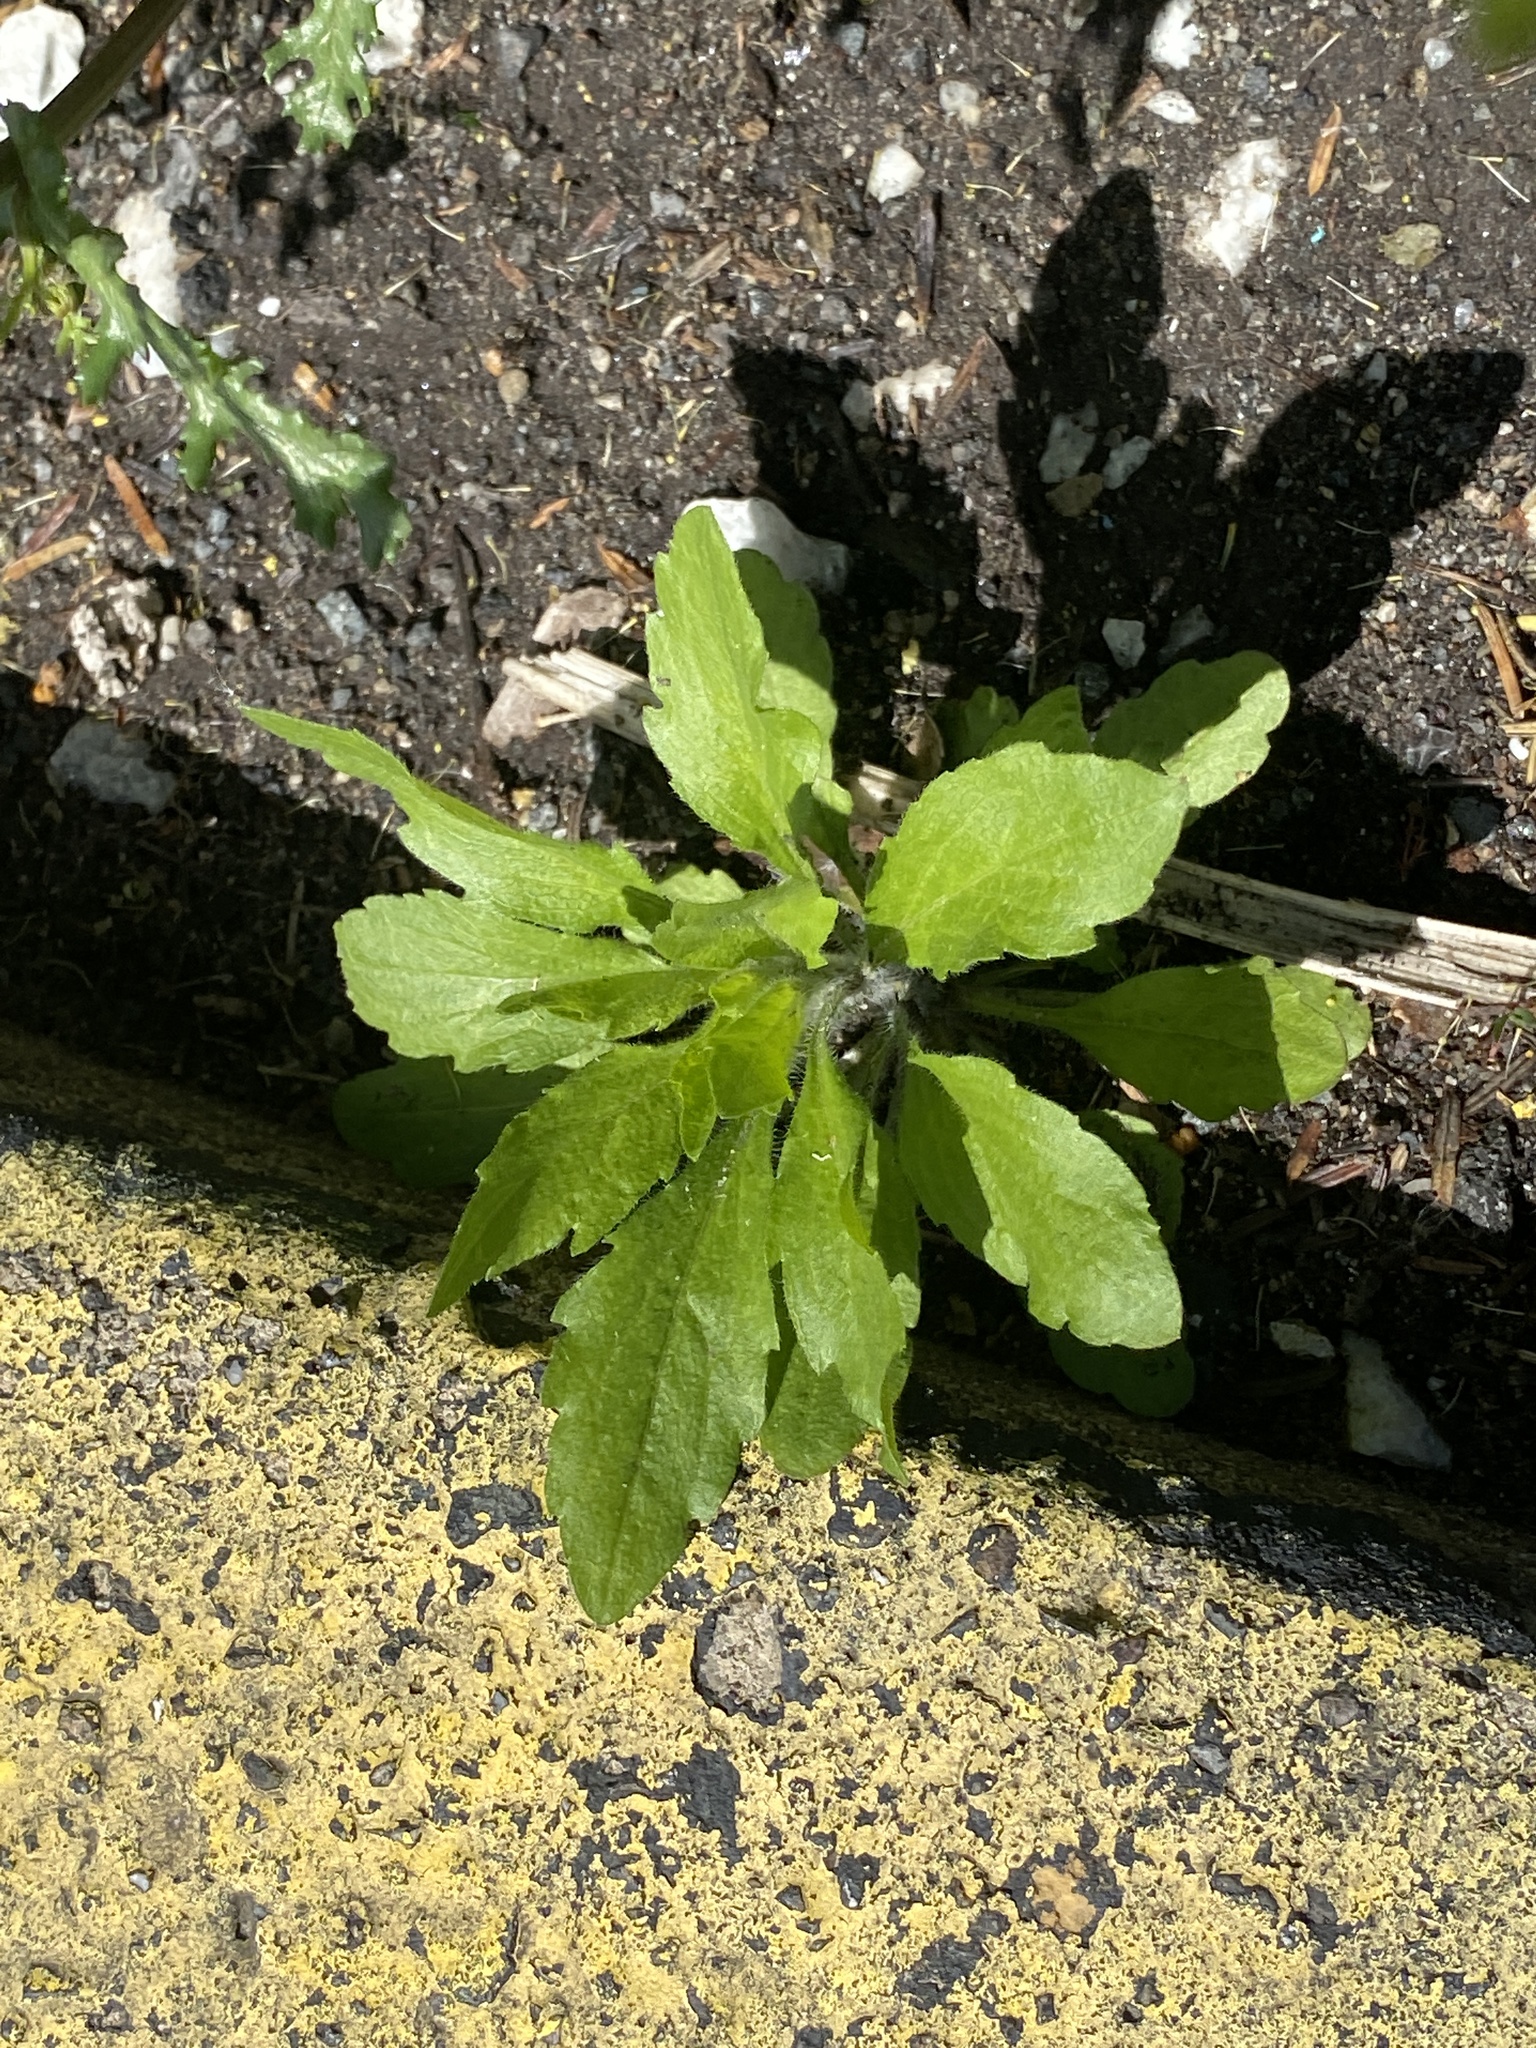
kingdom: Plantae
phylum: Tracheophyta
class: Magnoliopsida
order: Asterales
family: Asteraceae
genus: Erigeron
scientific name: Erigeron canadensis
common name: Canadian fleabane
